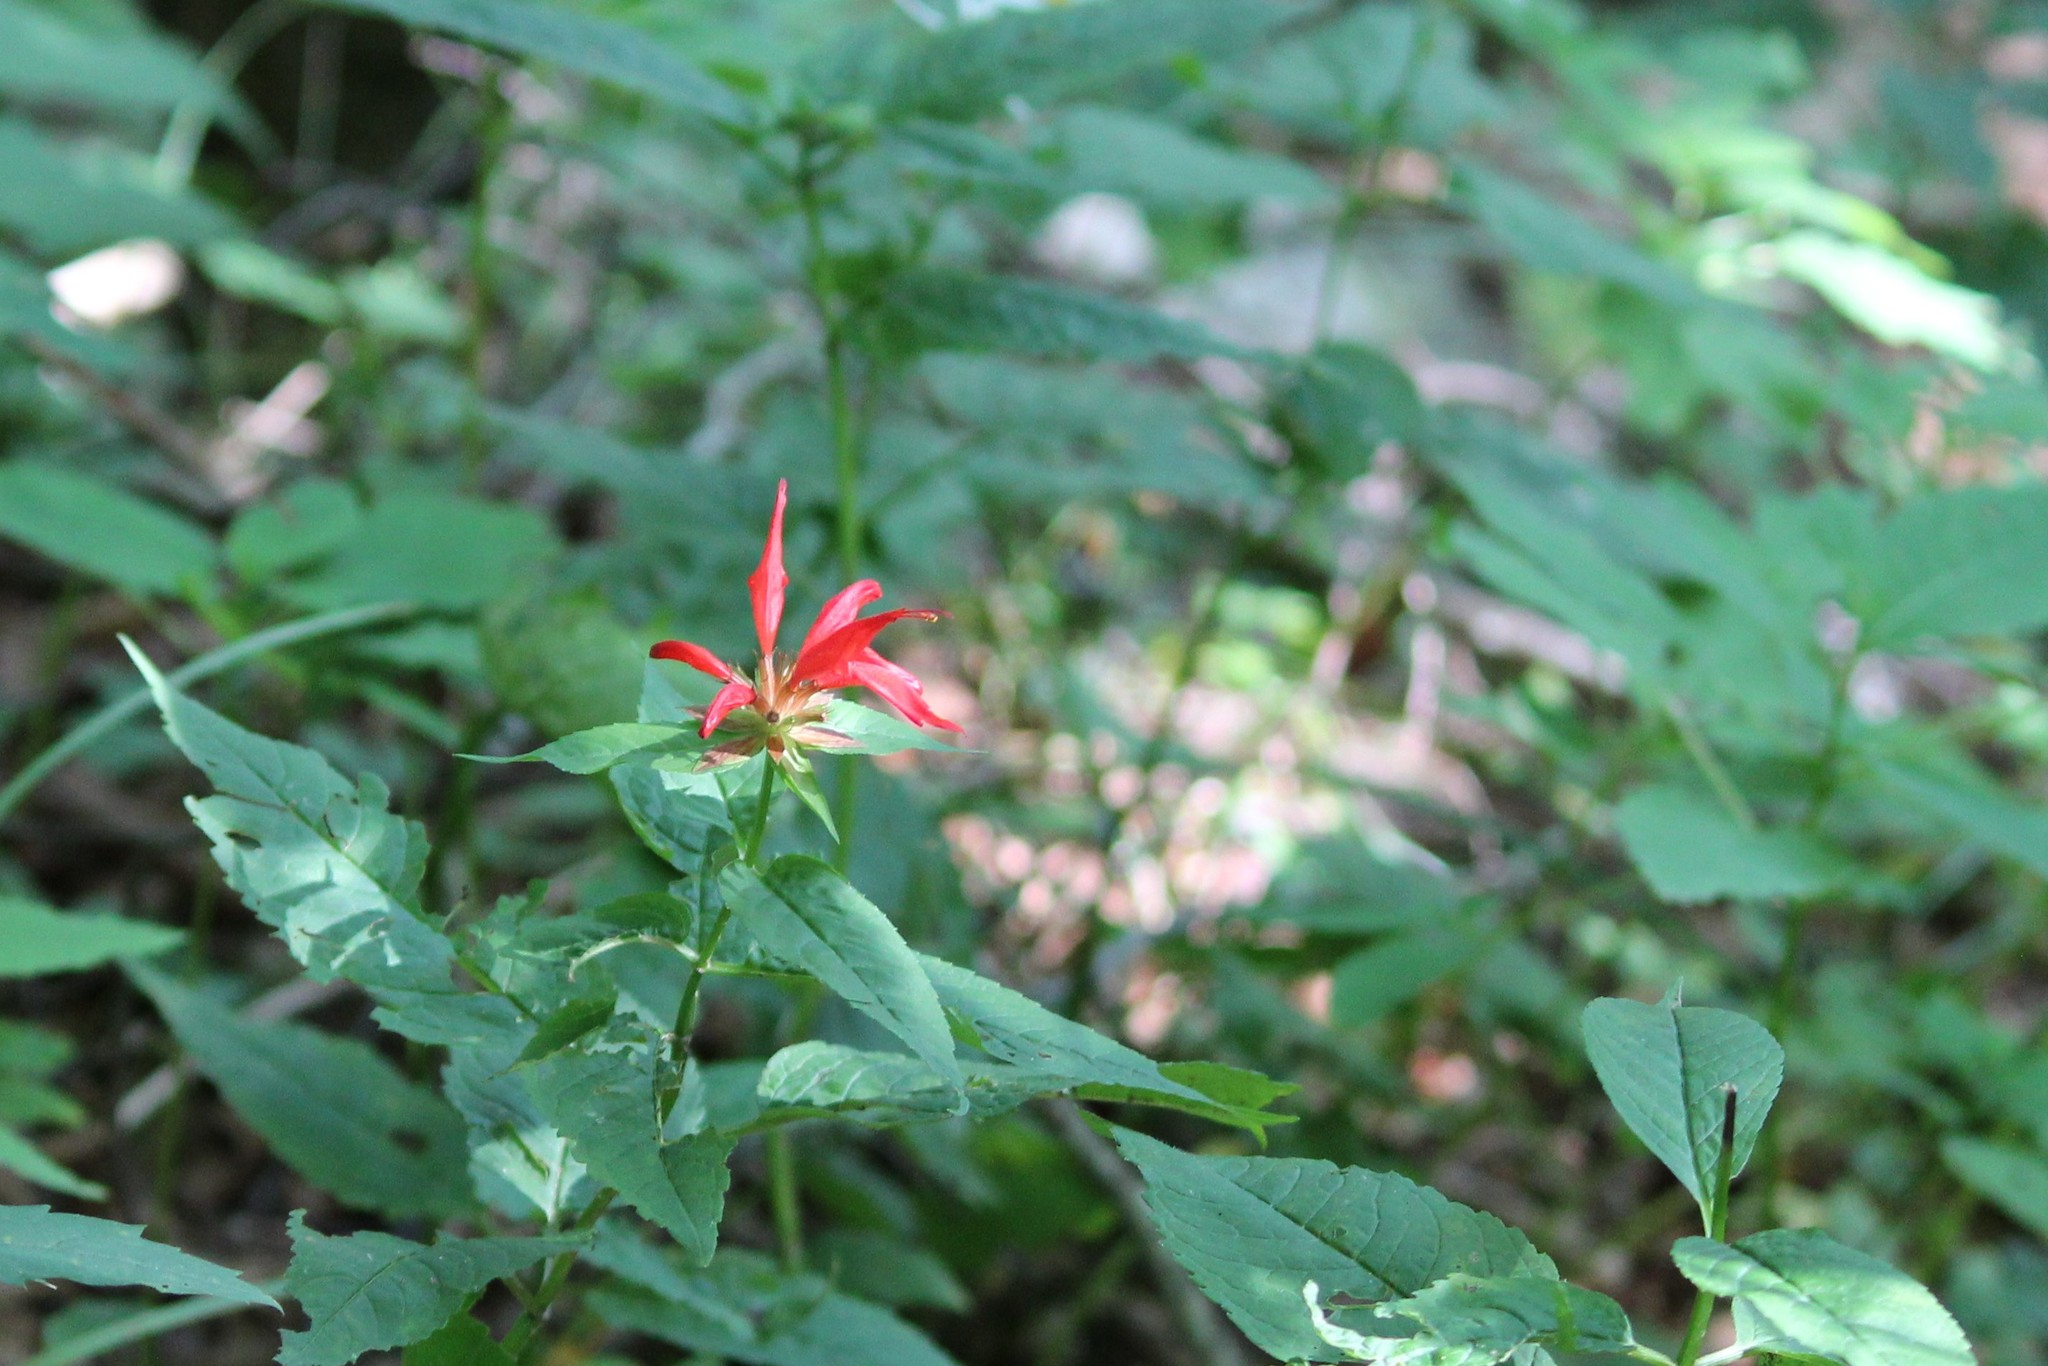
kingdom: Plantae
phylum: Tracheophyta
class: Magnoliopsida
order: Lamiales
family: Lamiaceae
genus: Monarda
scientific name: Monarda didyma
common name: Beebalm
